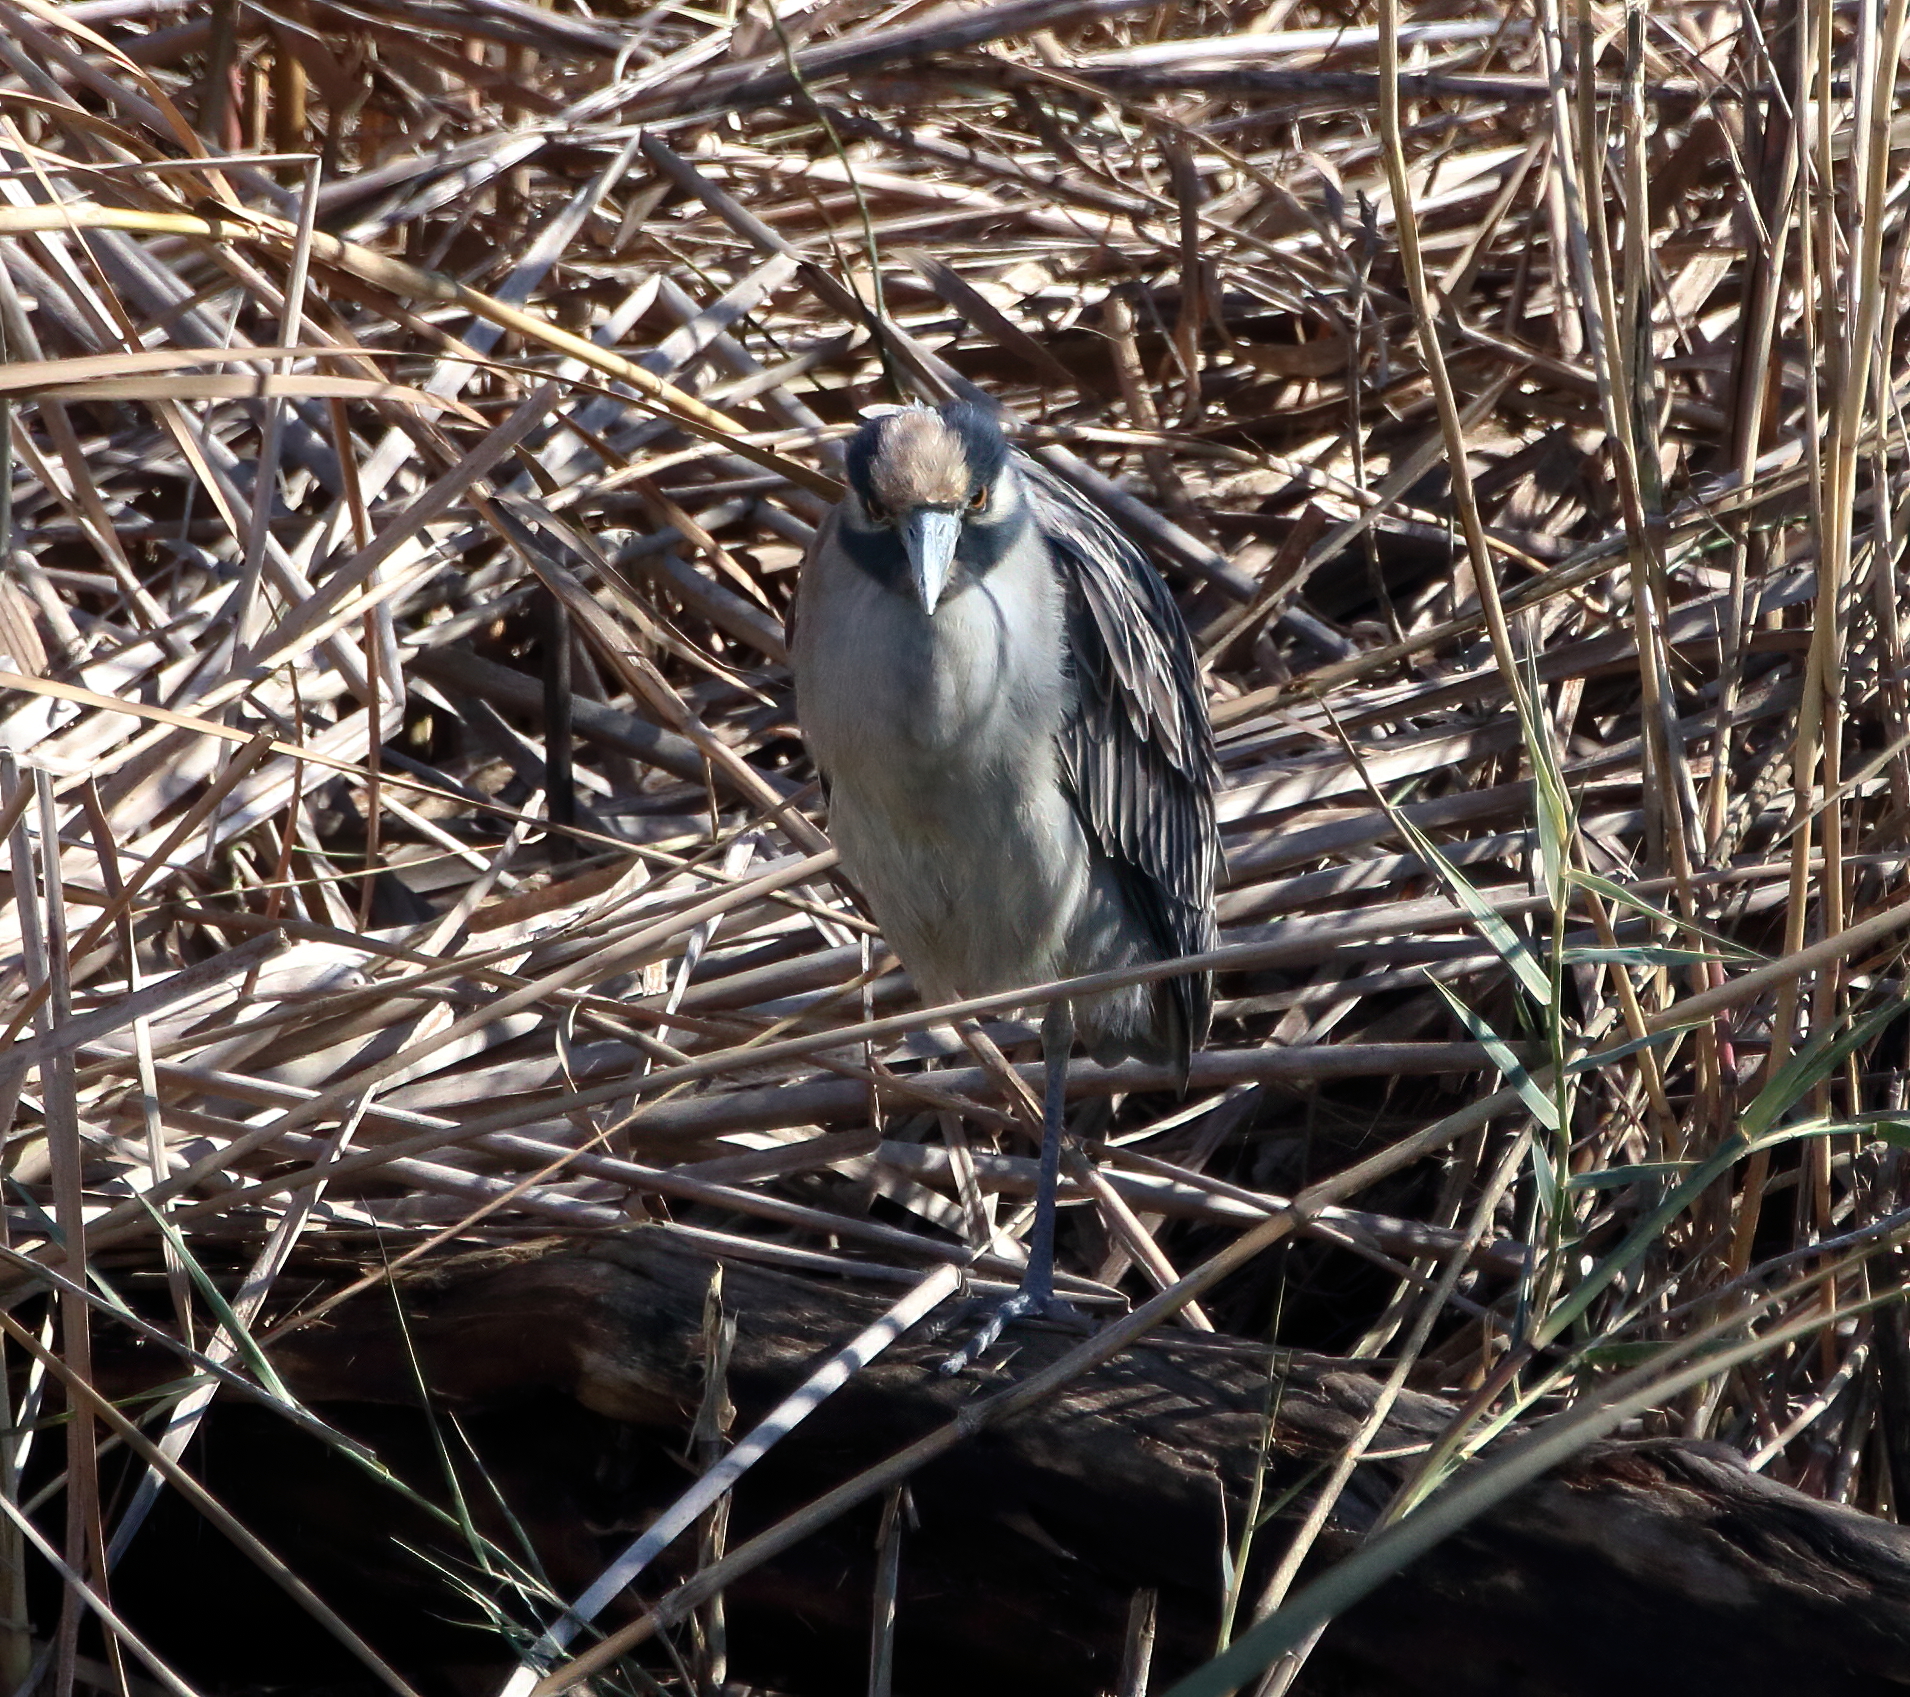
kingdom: Animalia
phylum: Chordata
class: Aves
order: Pelecaniformes
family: Ardeidae
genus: Nyctanassa
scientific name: Nyctanassa violacea
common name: Yellow-crowned night heron
